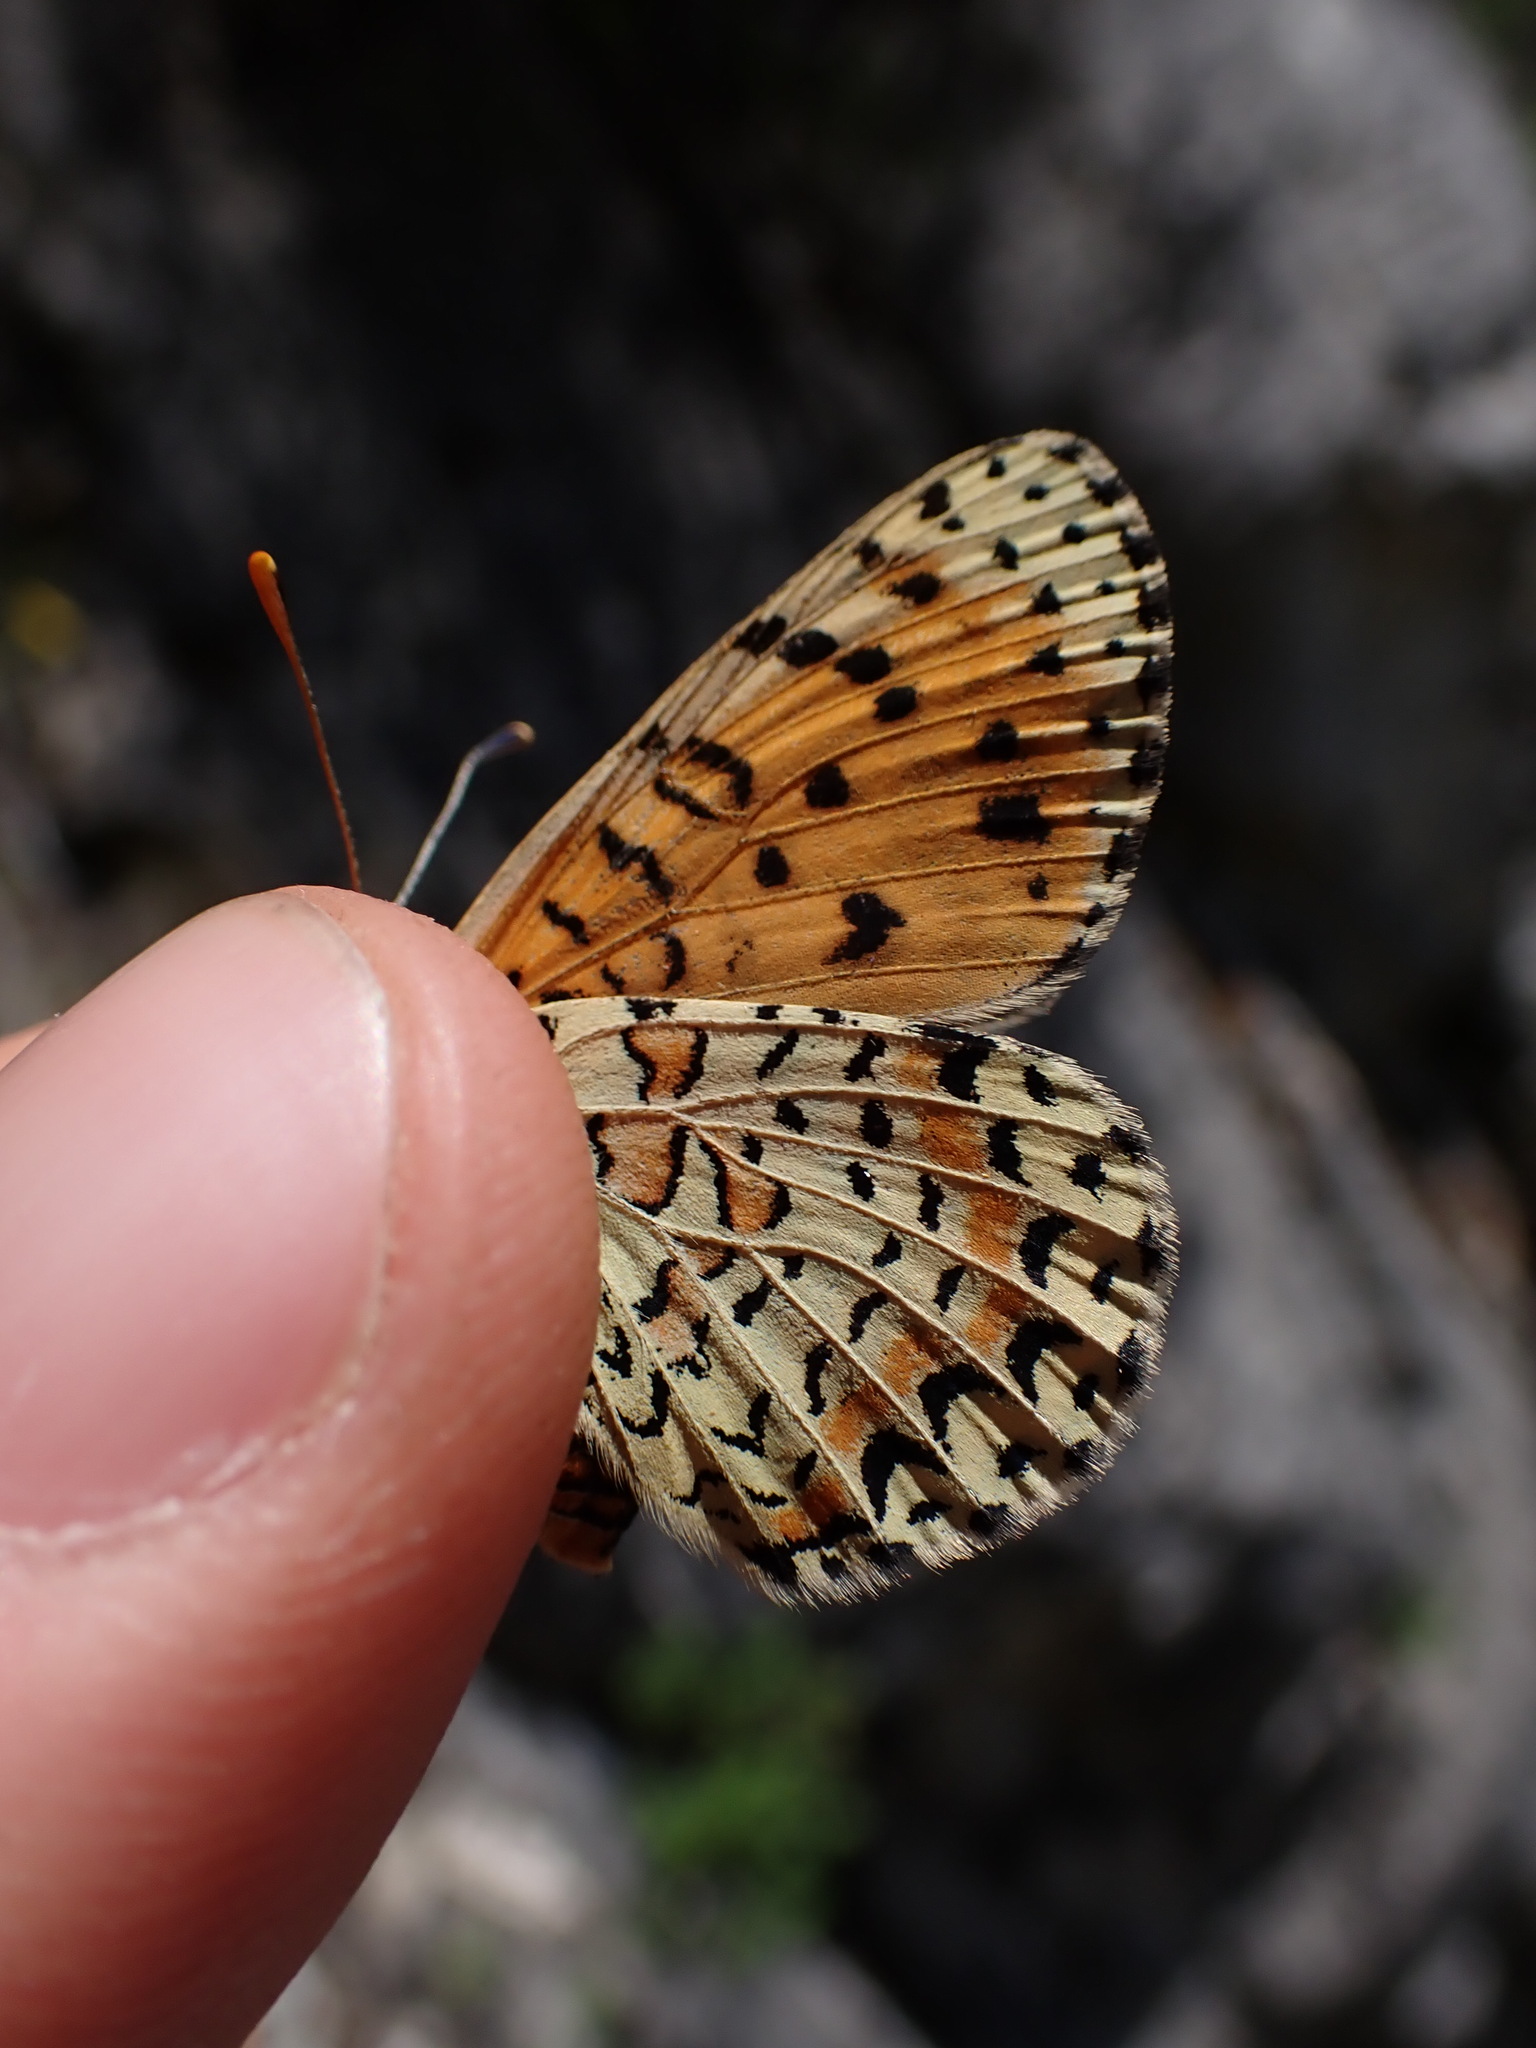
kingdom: Animalia
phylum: Arthropoda
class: Insecta
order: Lepidoptera
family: Nymphalidae
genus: Melitaea
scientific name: Melitaea didyma
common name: Spotted fritillary
